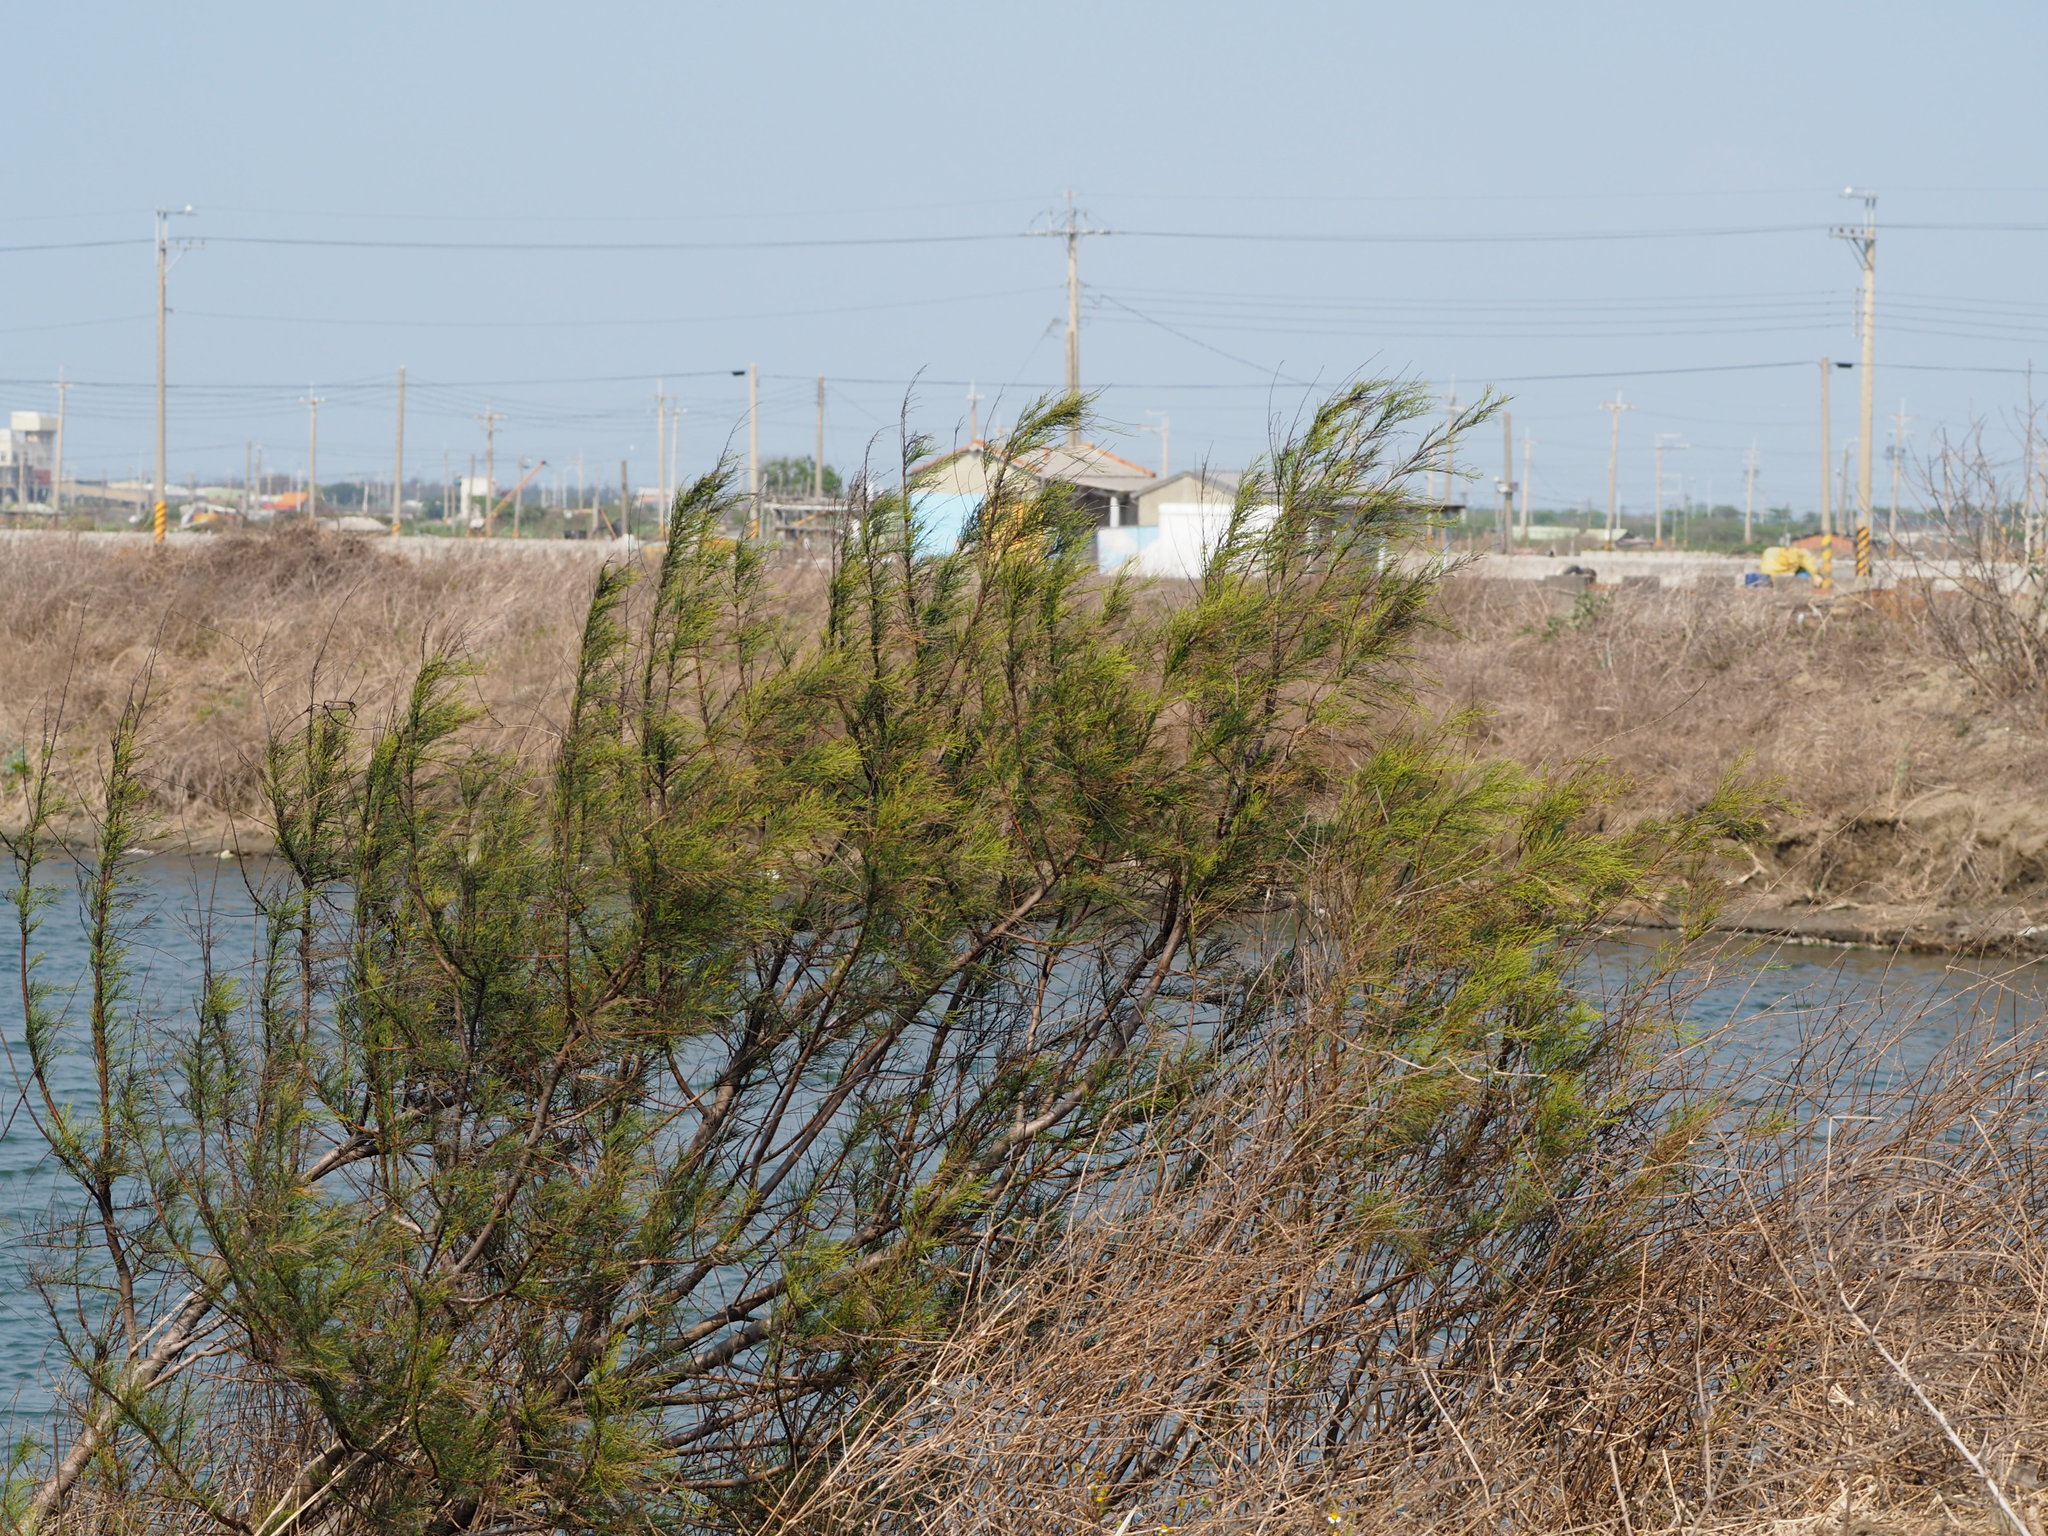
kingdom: Plantae
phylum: Tracheophyta
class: Magnoliopsida
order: Fagales
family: Casuarinaceae
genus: Casuarina
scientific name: Casuarina equisetifolia
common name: Beach sheoak
